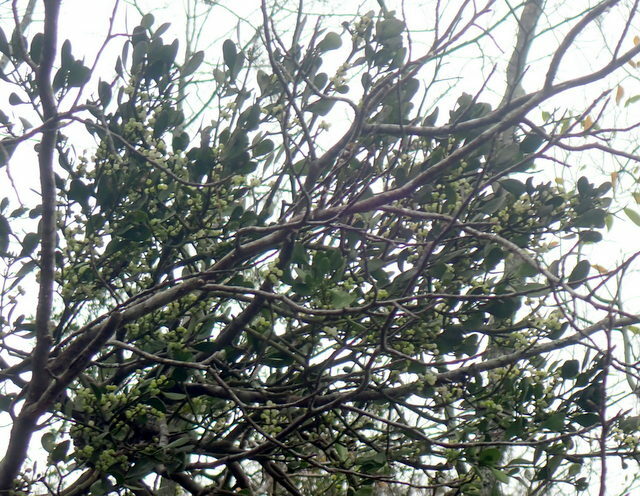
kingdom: Plantae
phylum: Tracheophyta
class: Magnoliopsida
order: Santalales
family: Viscaceae
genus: Phoradendron
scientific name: Phoradendron leucarpum
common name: Pacific mistletoe
